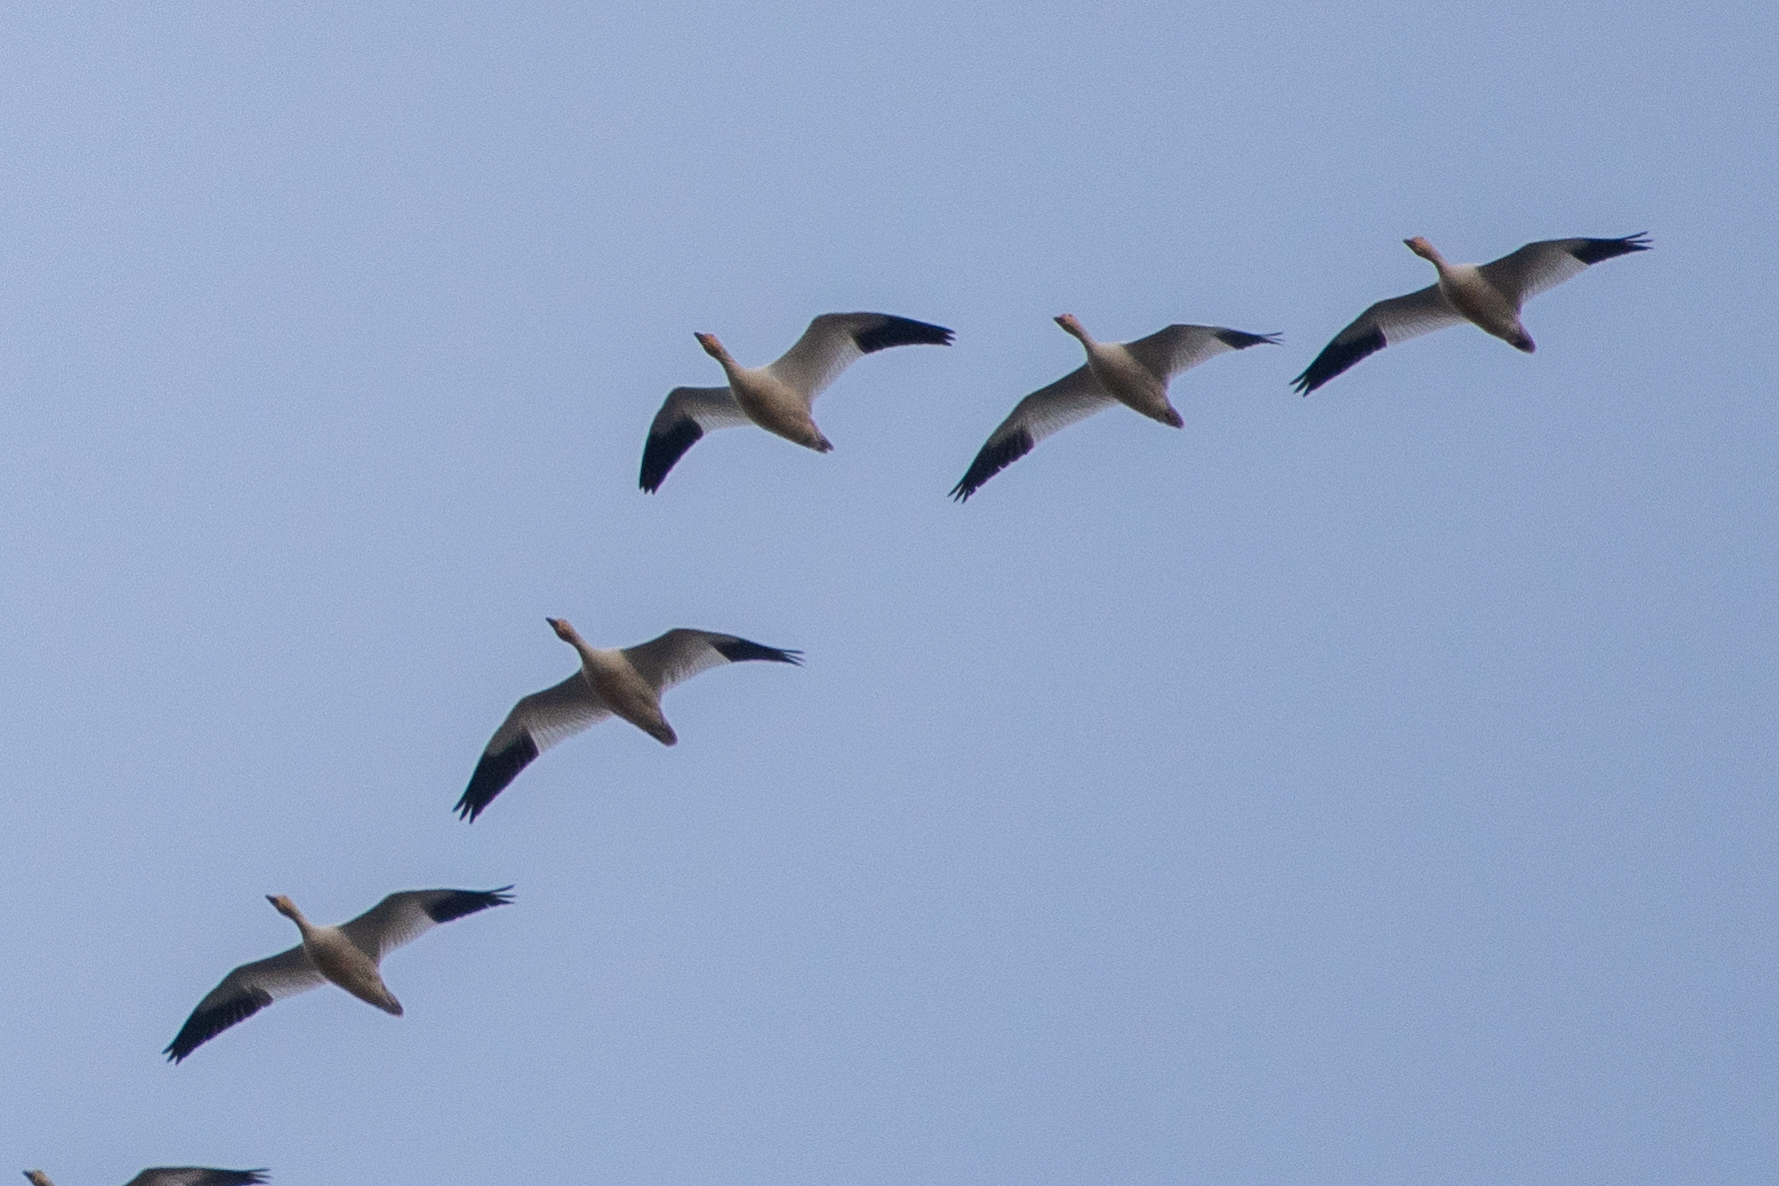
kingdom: Animalia
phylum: Chordata
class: Aves
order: Anseriformes
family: Anatidae
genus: Anser
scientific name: Anser caerulescens
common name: Snow goose
